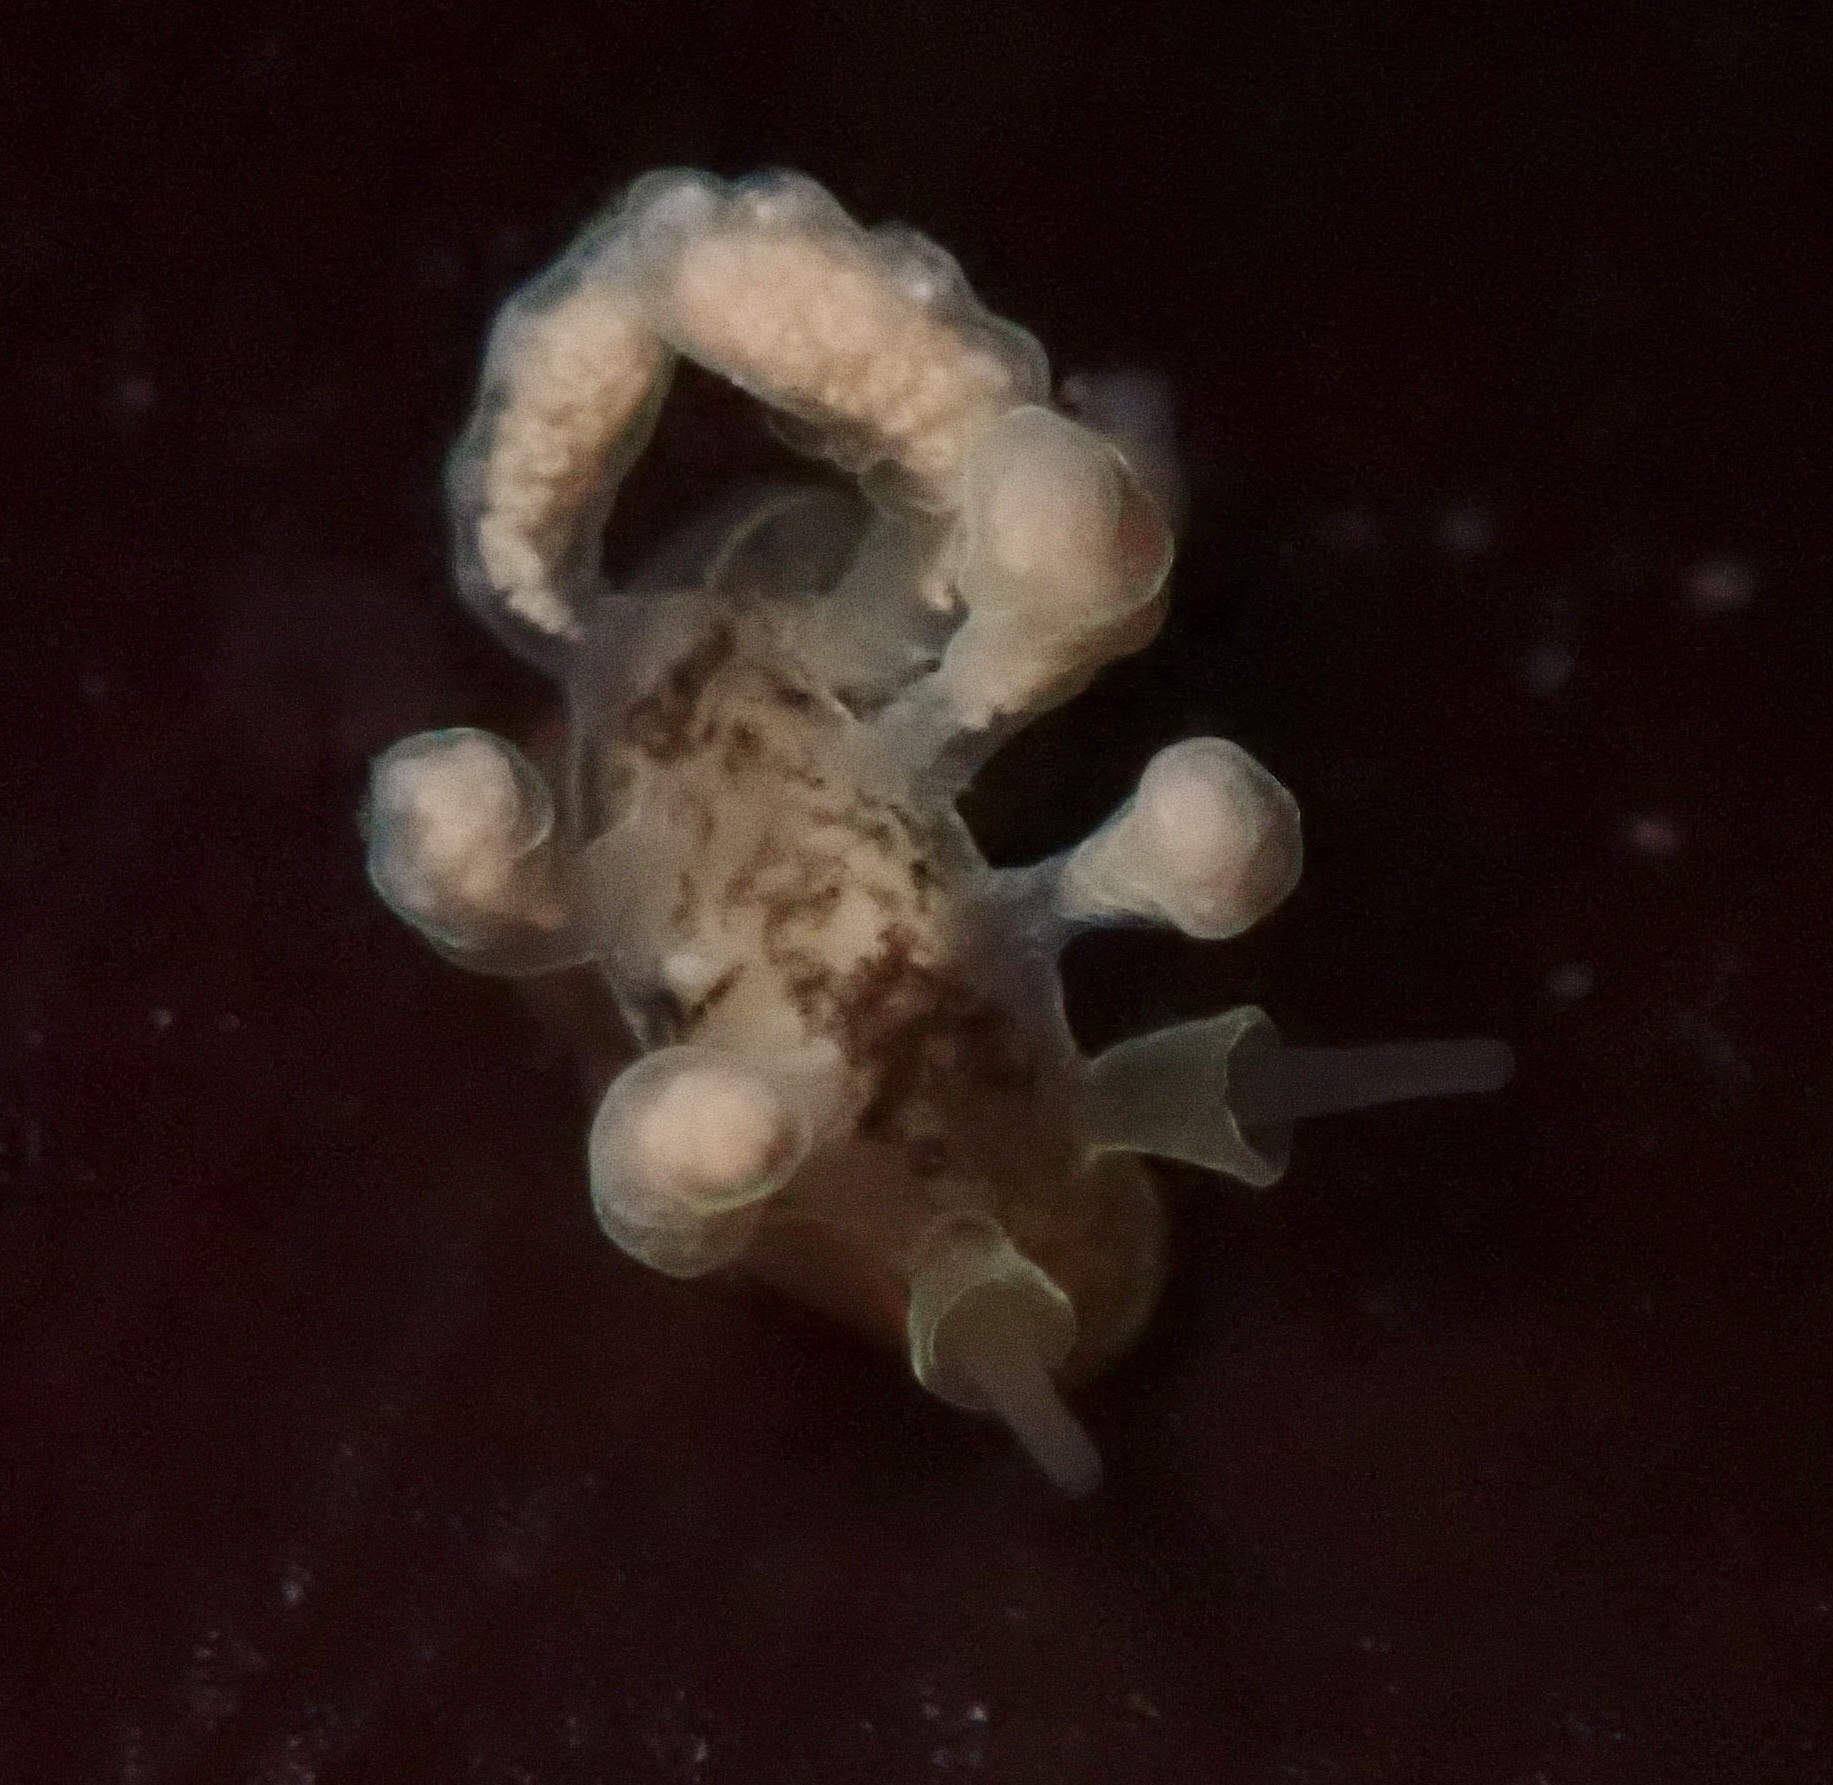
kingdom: Animalia
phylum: Mollusca
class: Gastropoda
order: Nudibranchia
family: Dotidae
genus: Doto
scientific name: Doto columbiana
